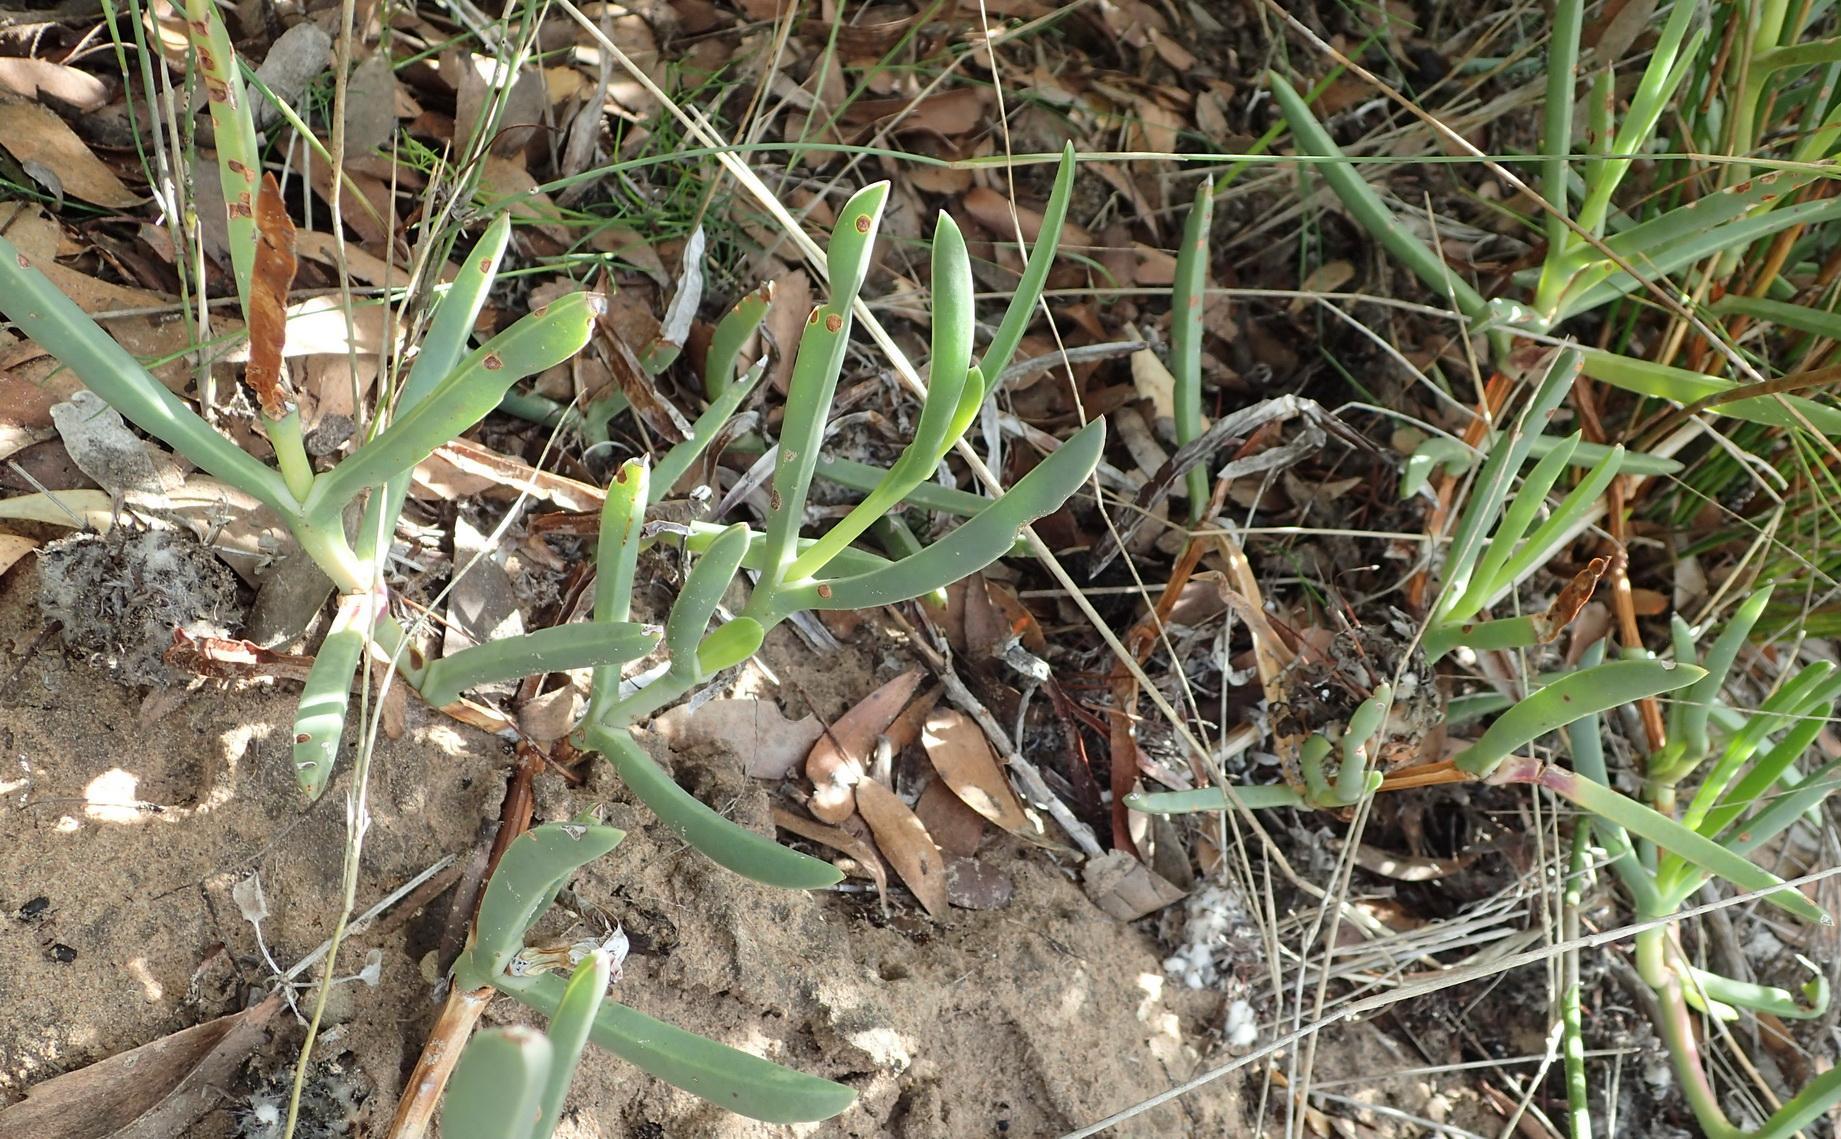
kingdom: Plantae
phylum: Tracheophyta
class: Magnoliopsida
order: Caryophyllales
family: Aizoaceae
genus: Carpobrotus
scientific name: Carpobrotus muirii
